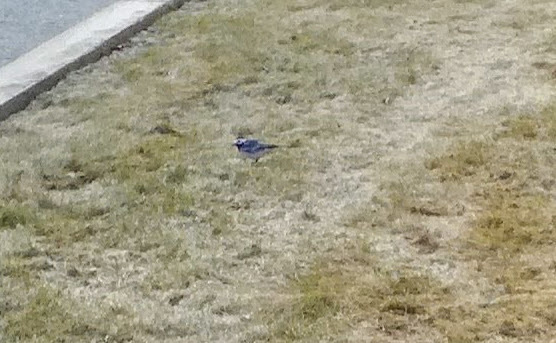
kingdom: Animalia
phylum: Chordata
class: Aves
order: Passeriformes
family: Motacillidae
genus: Motacilla
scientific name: Motacilla alba
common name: White wagtail
